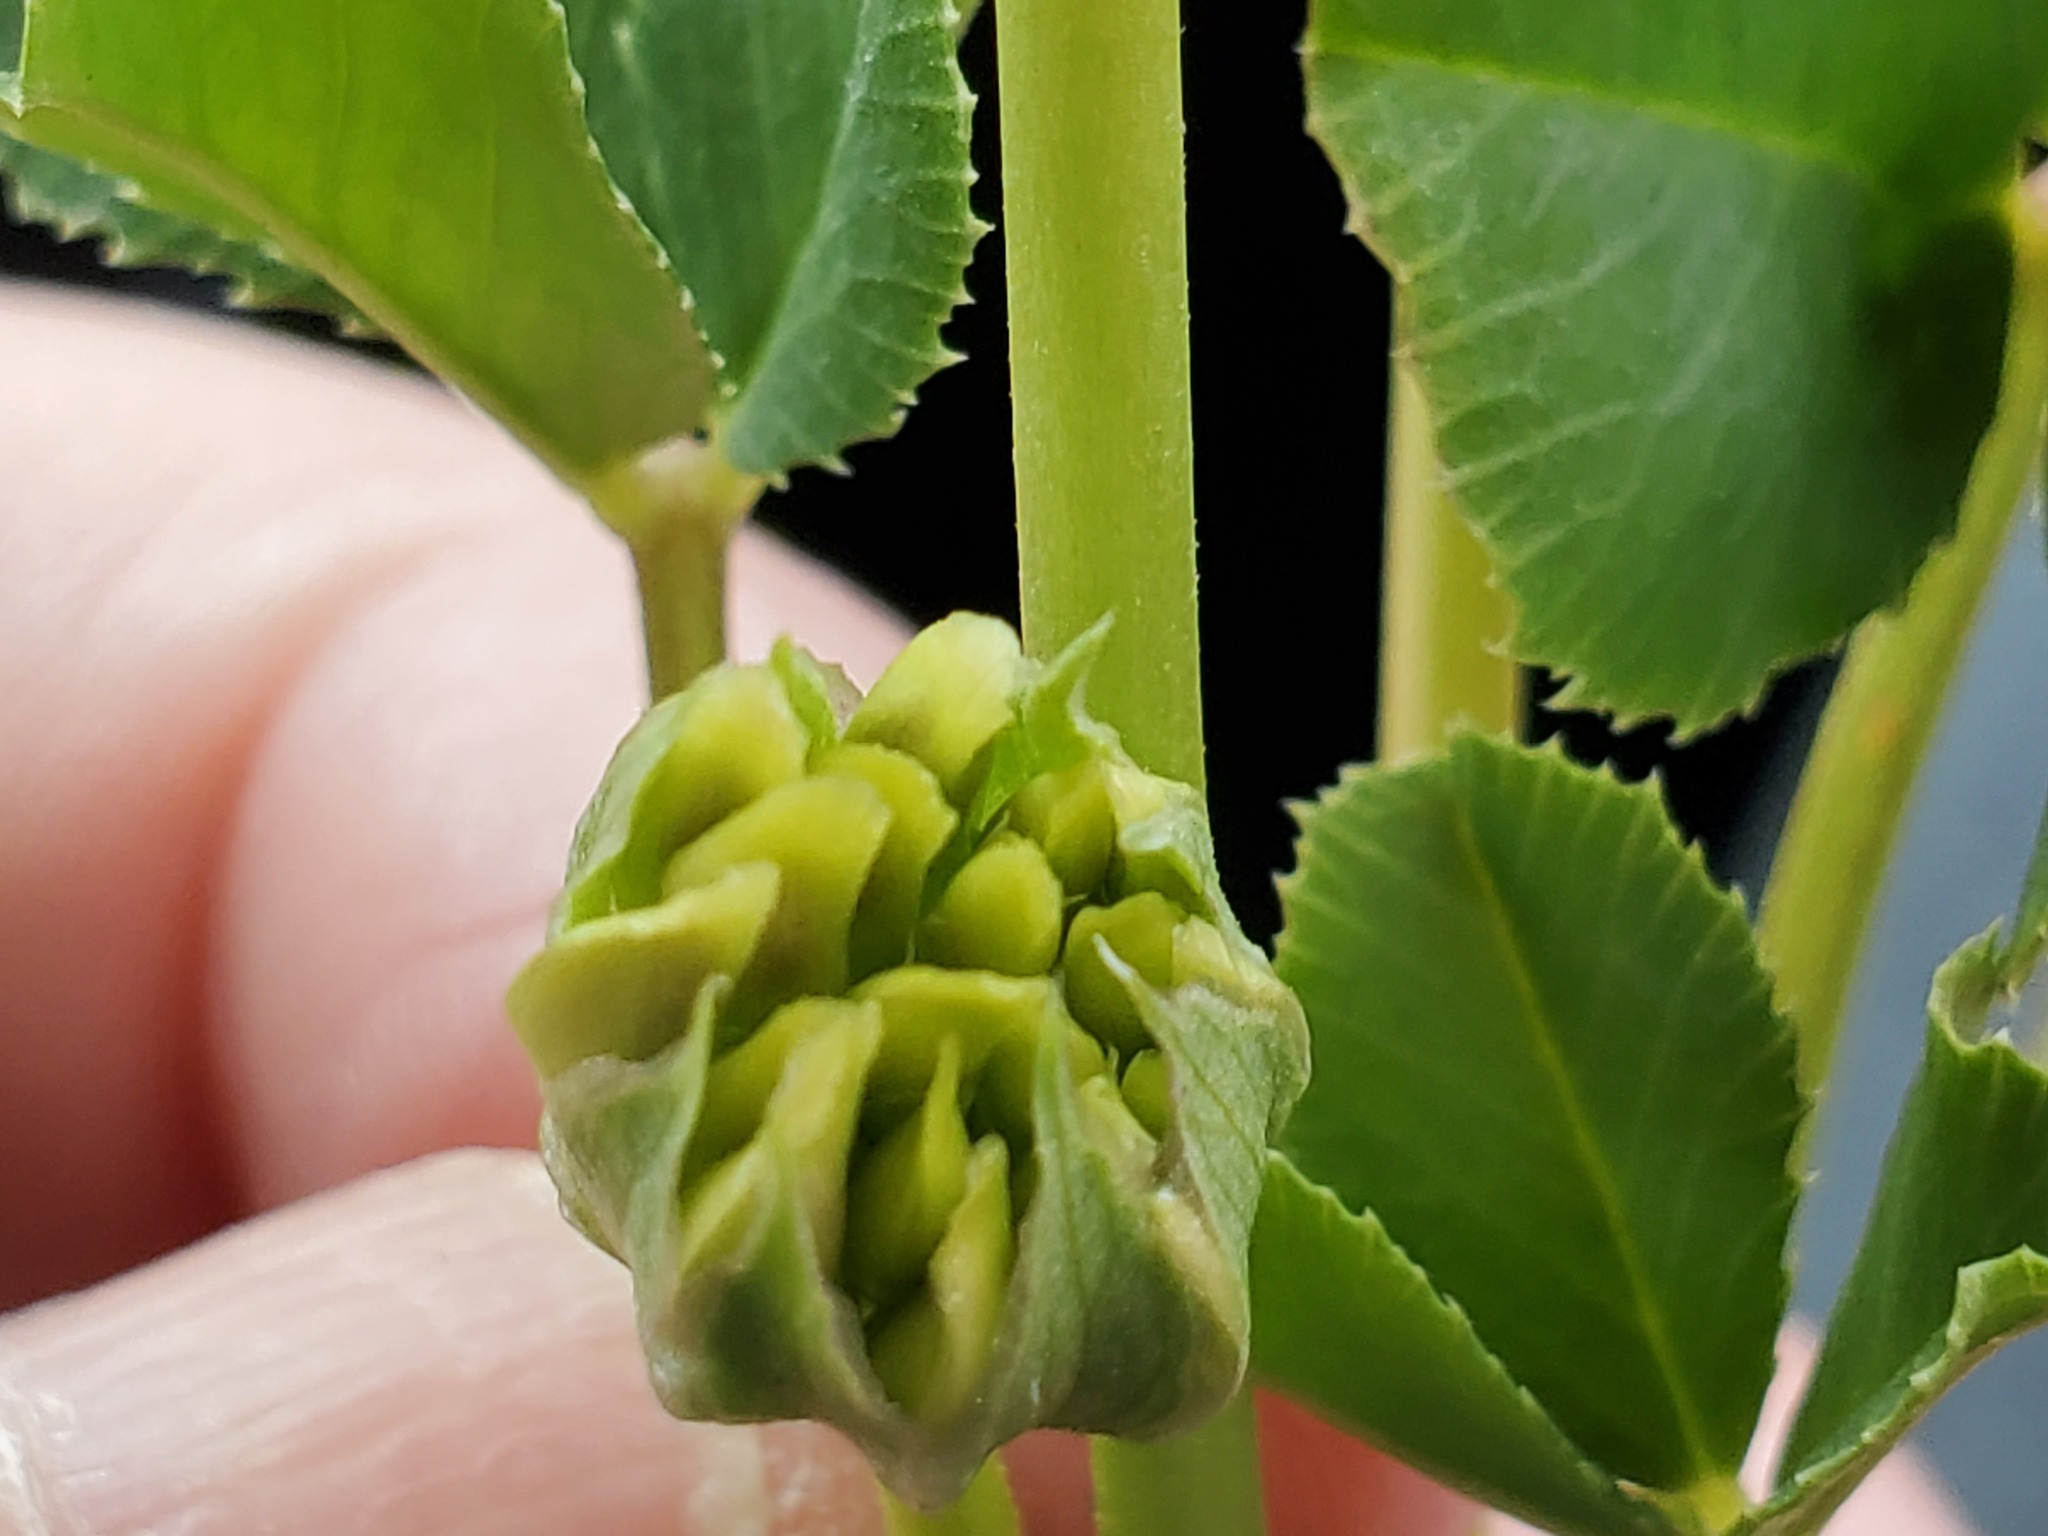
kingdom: Plantae
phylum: Tracheophyta
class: Magnoliopsida
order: Fabales
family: Fabaceae
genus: Trifolium
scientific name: Trifolium fucatum
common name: Puff clover
